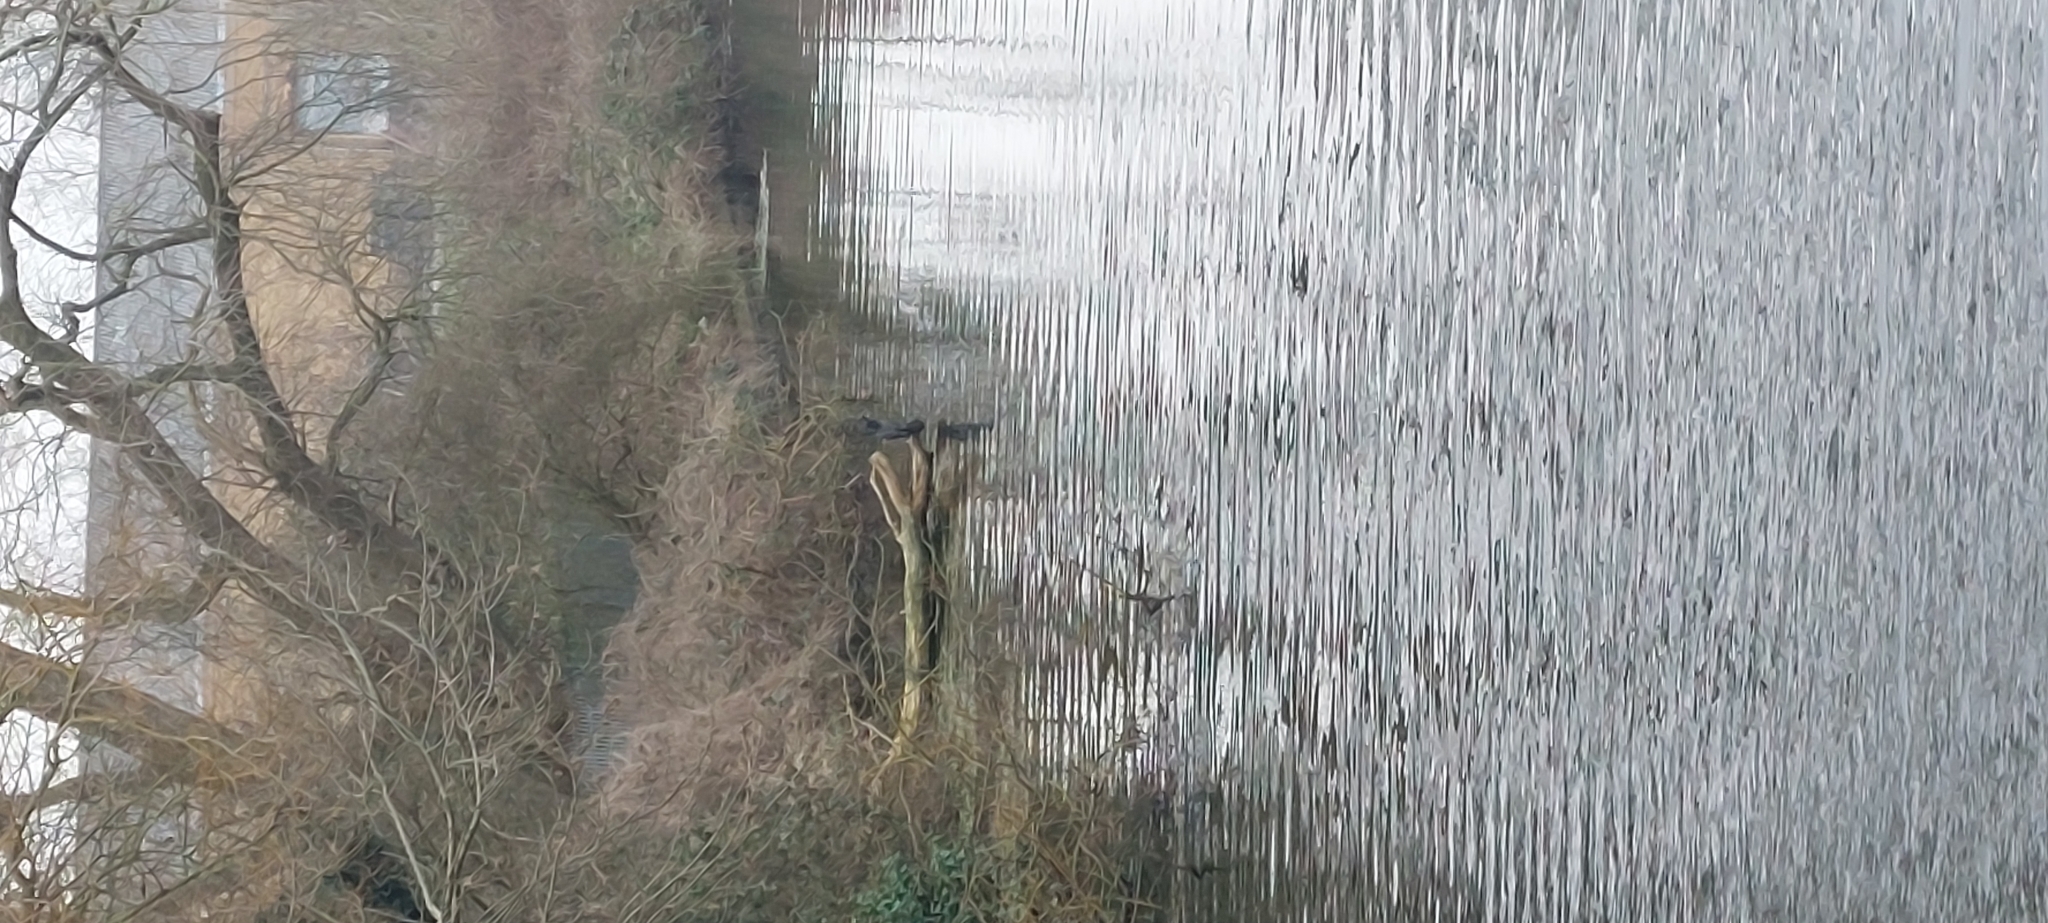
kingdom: Animalia
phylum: Chordata
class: Aves
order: Suliformes
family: Phalacrocoracidae
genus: Phalacrocorax
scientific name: Phalacrocorax carbo
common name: Great cormorant
